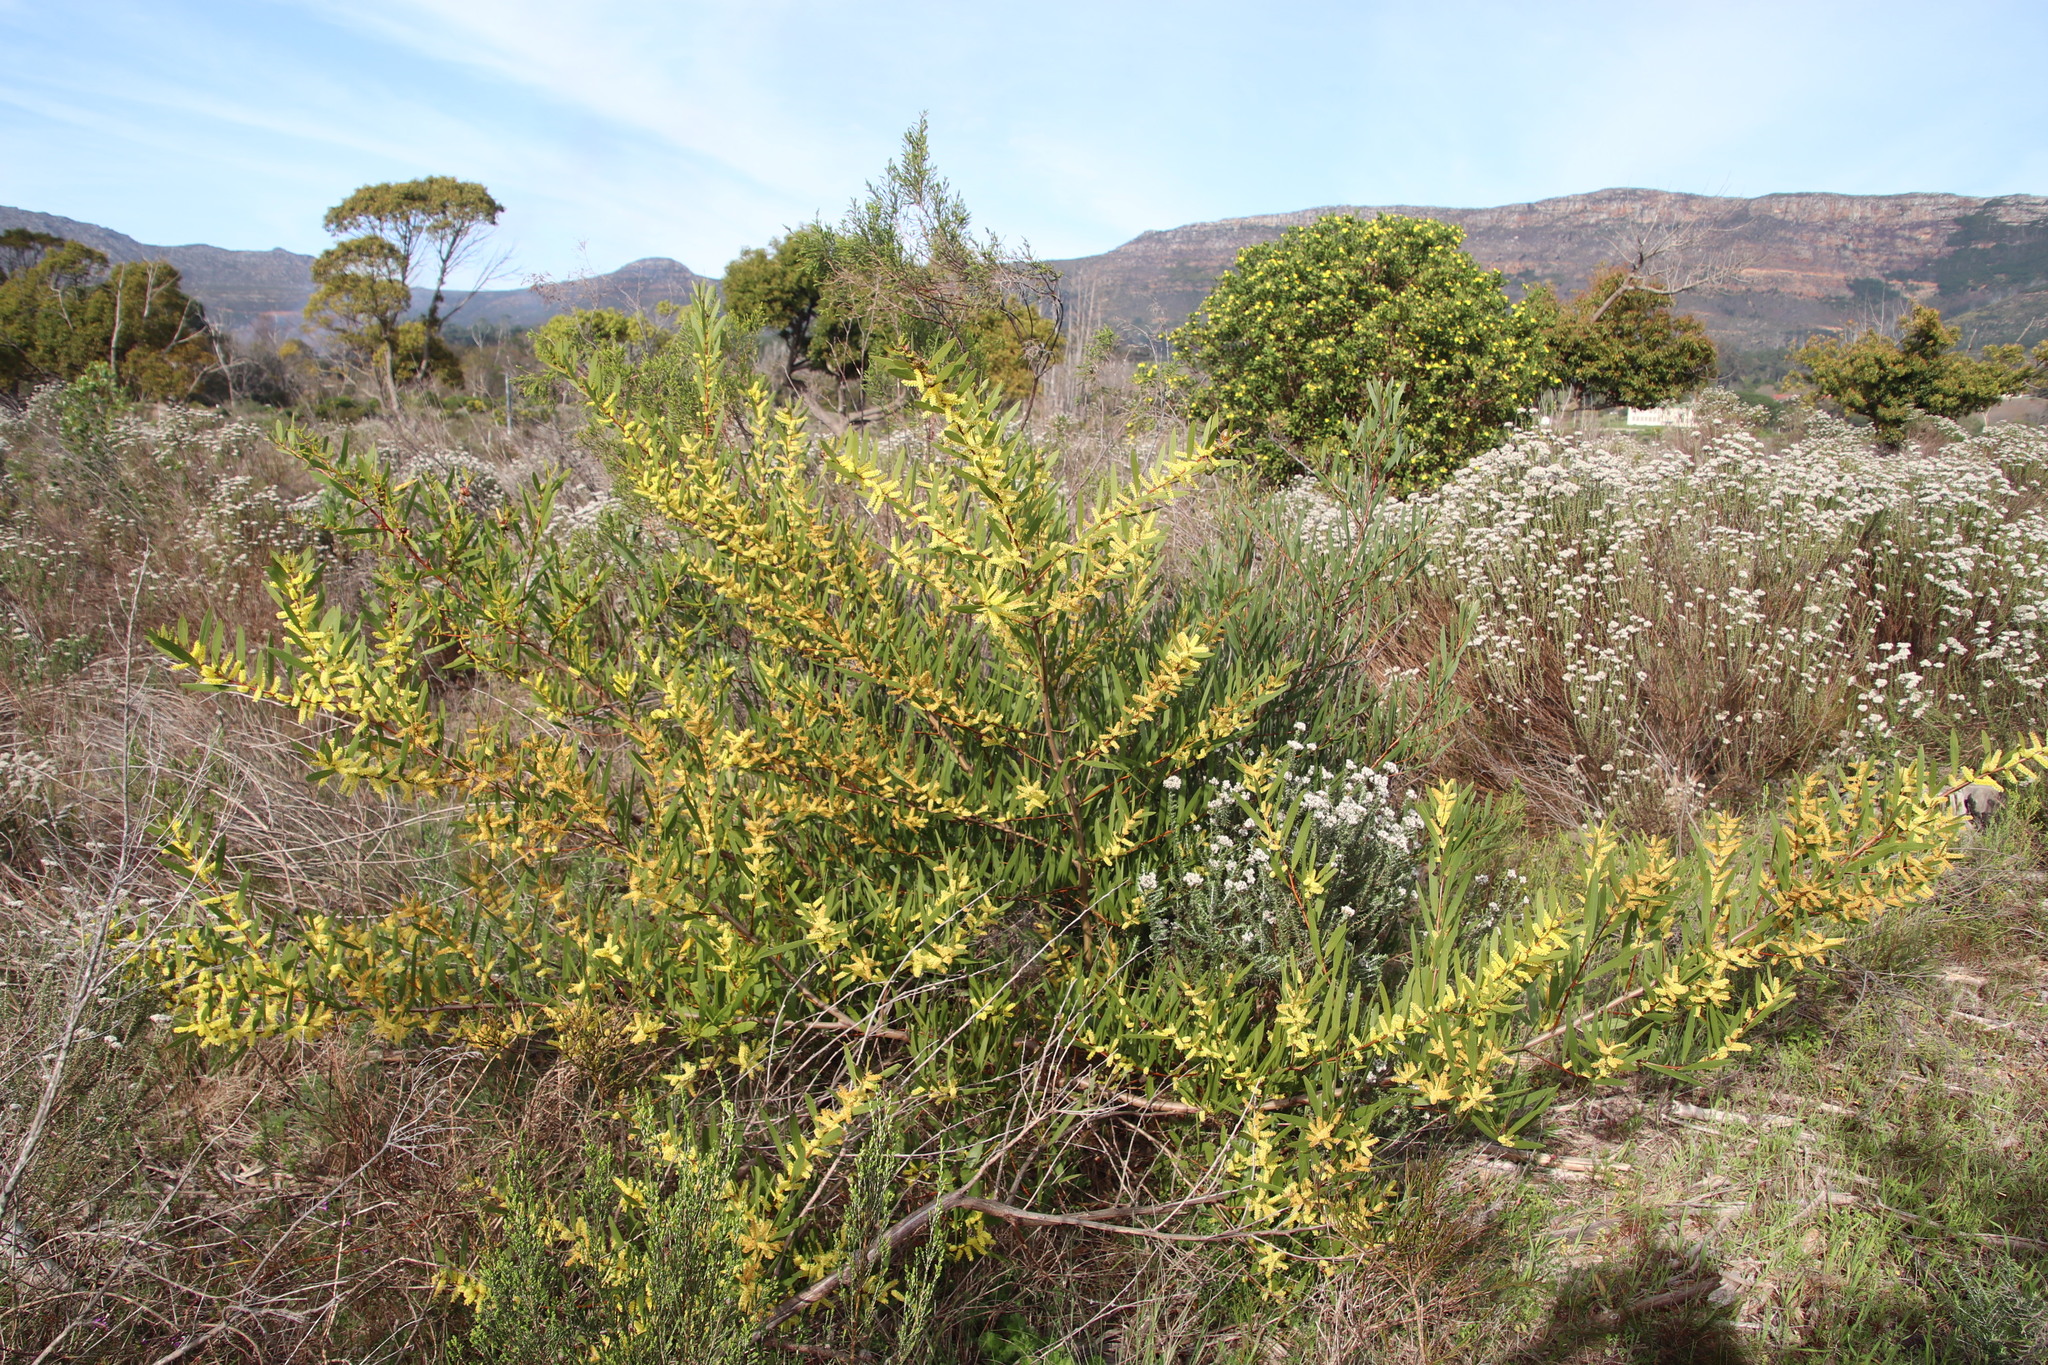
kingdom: Plantae
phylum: Tracheophyta
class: Magnoliopsida
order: Fabales
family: Fabaceae
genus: Acacia
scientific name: Acacia longifolia
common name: Sydney golden wattle
